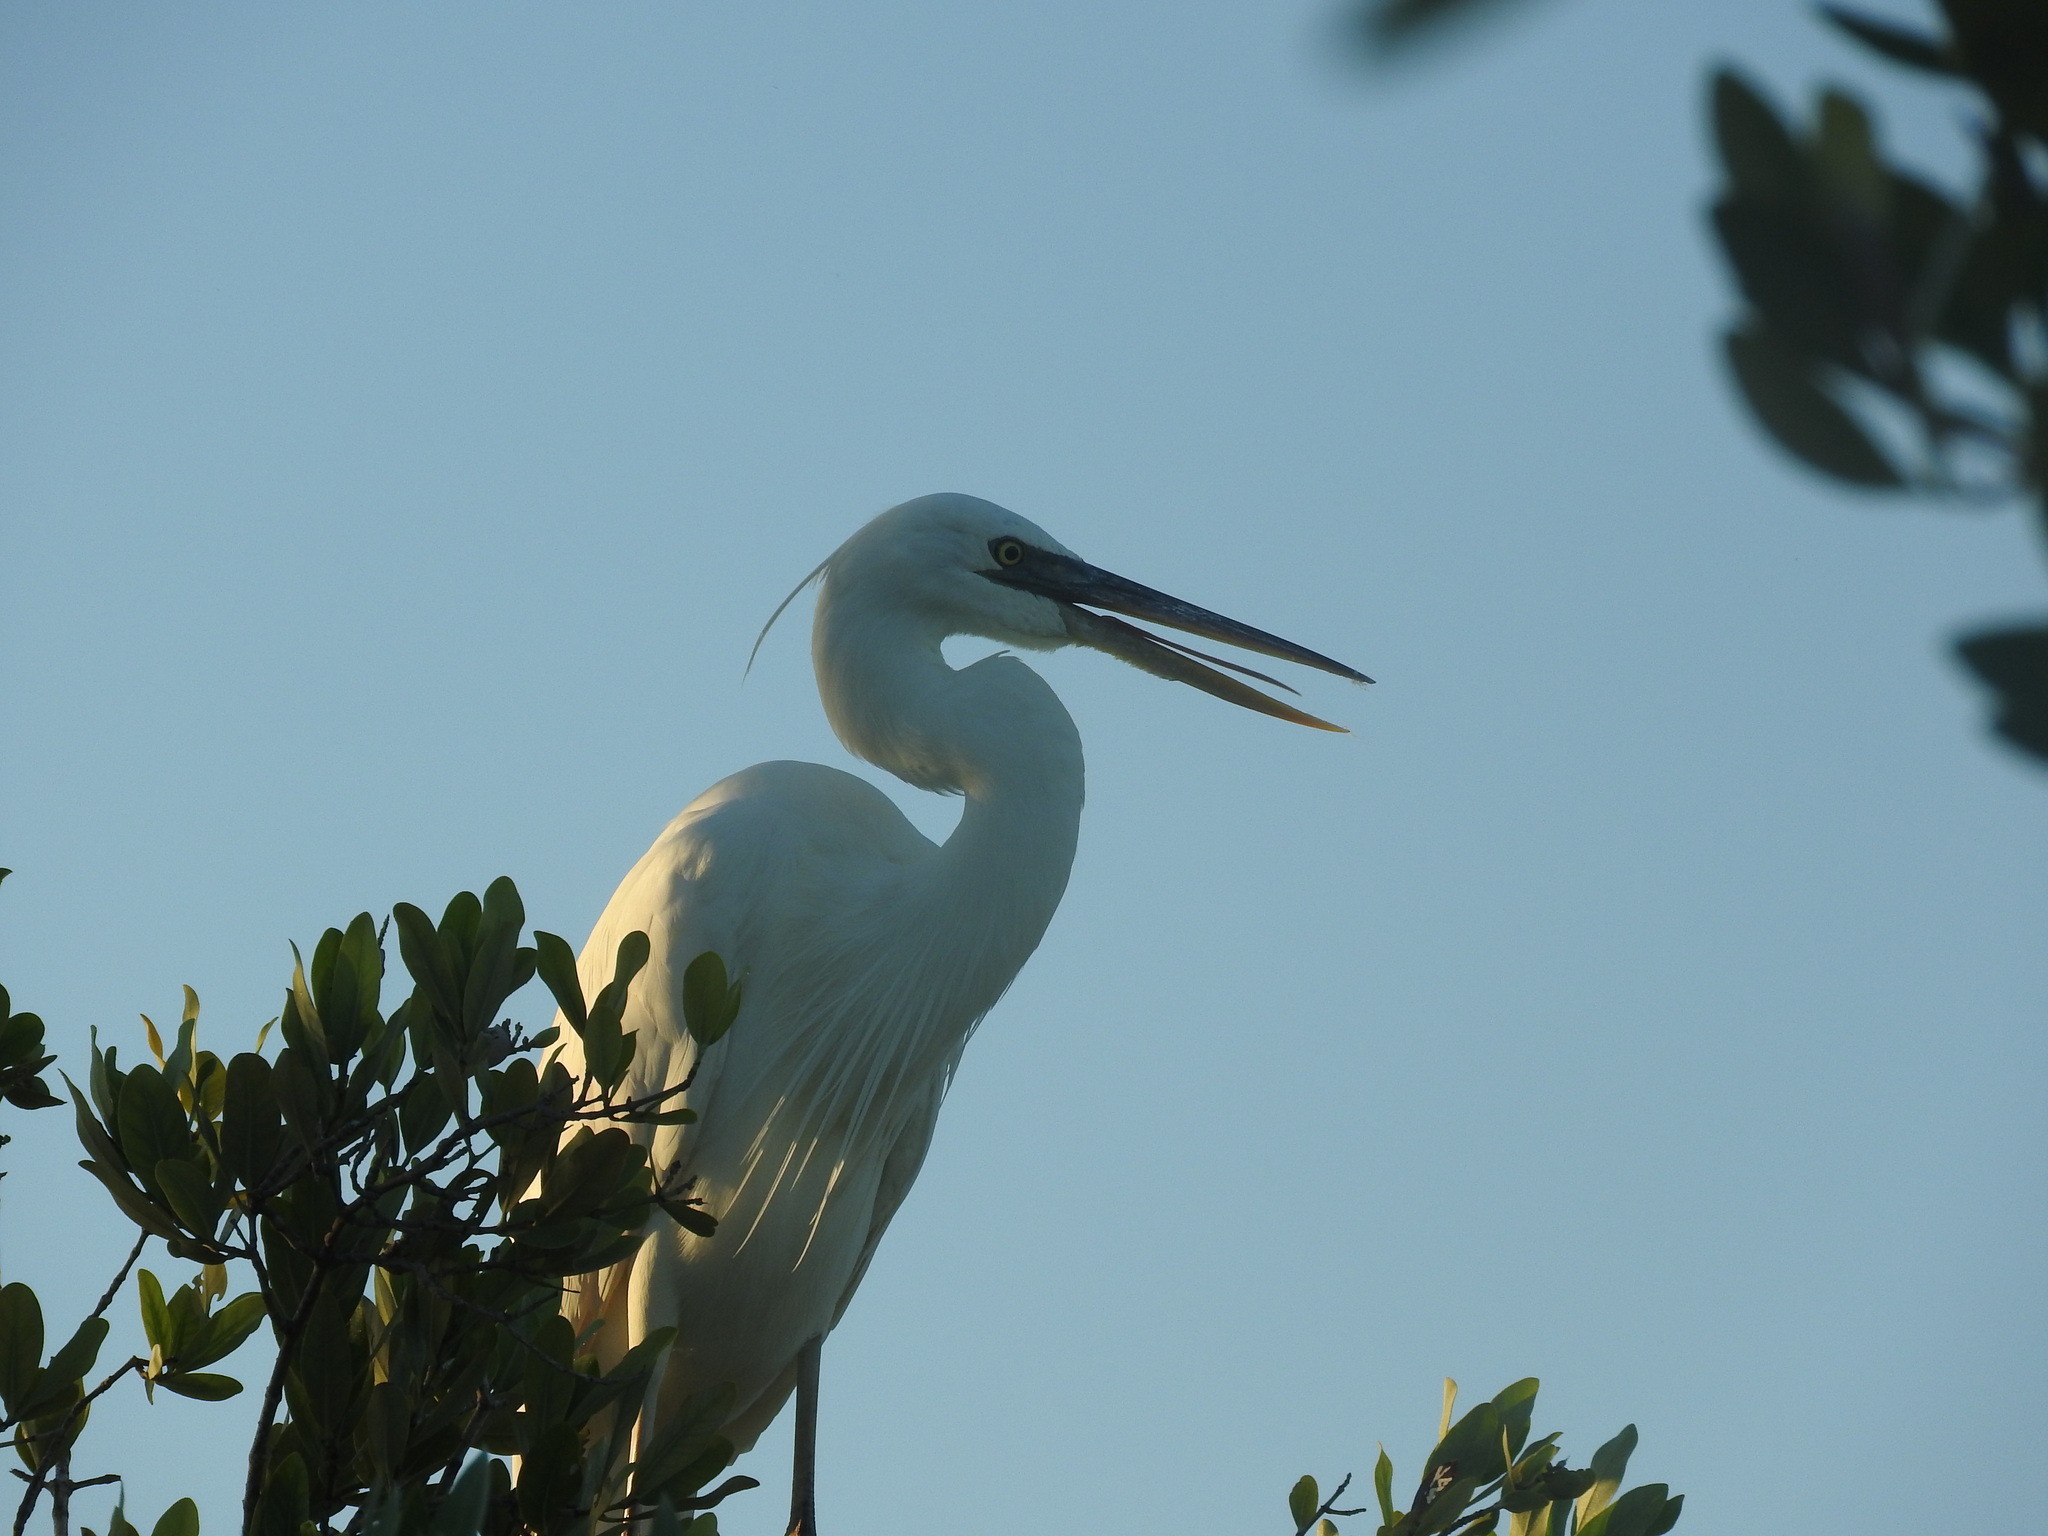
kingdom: Animalia
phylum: Chordata
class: Aves
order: Pelecaniformes
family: Ardeidae
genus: Ardea
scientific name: Ardea herodias
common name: Great blue heron
